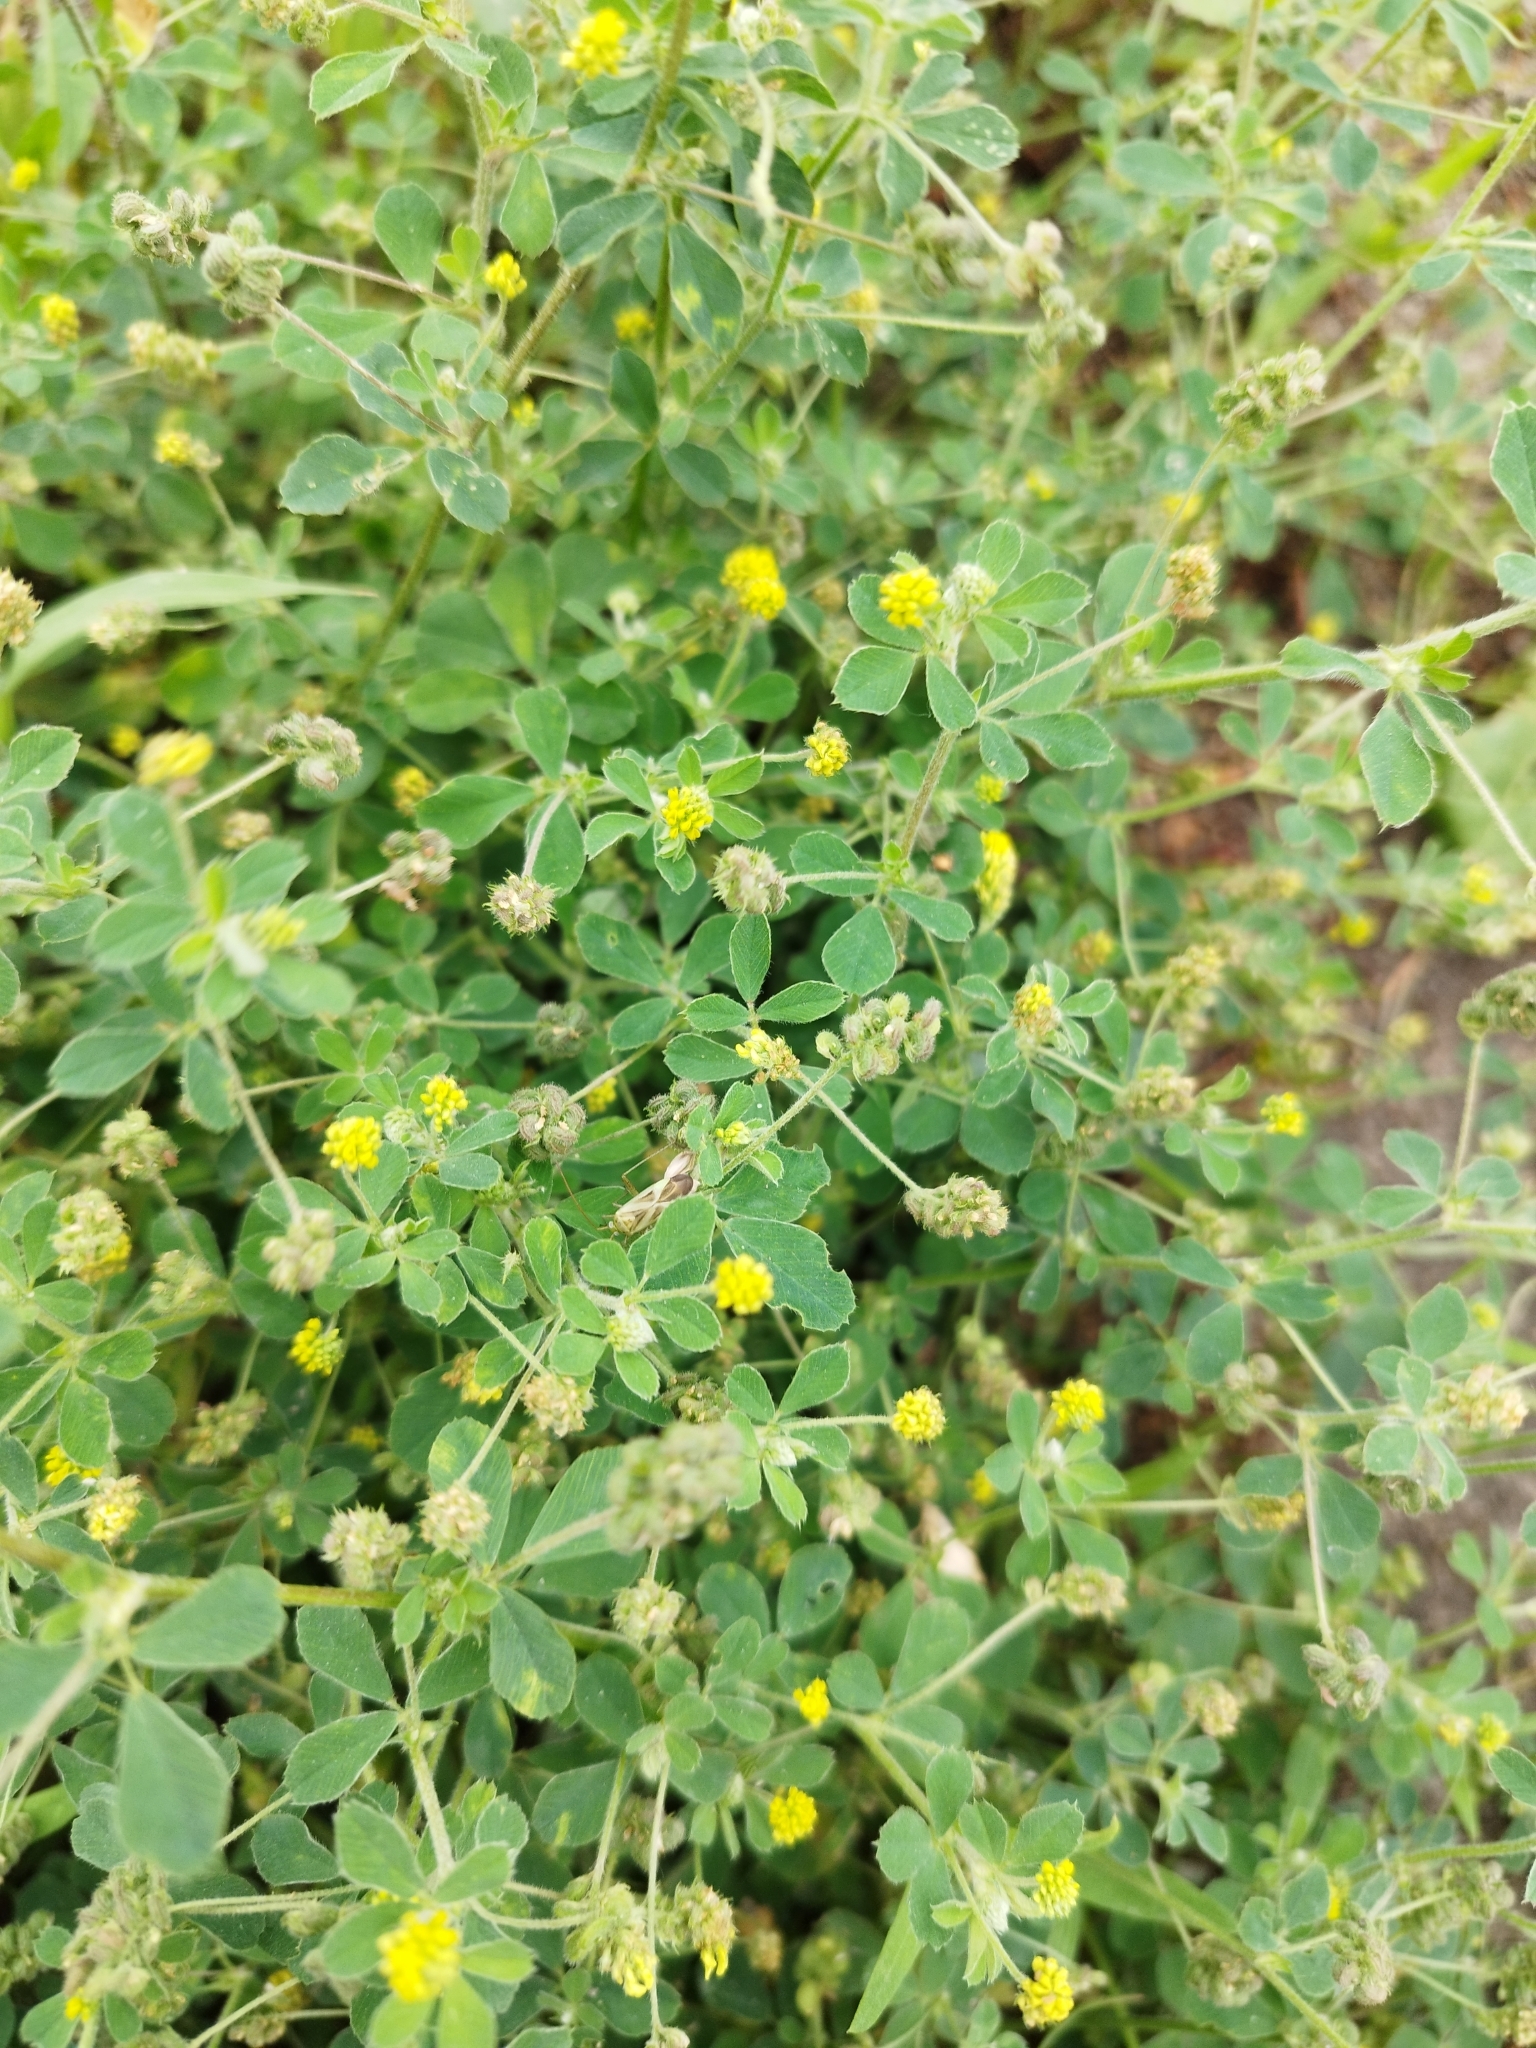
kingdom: Plantae
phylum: Tracheophyta
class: Magnoliopsida
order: Fabales
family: Fabaceae
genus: Medicago
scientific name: Medicago lupulina
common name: Black medick
